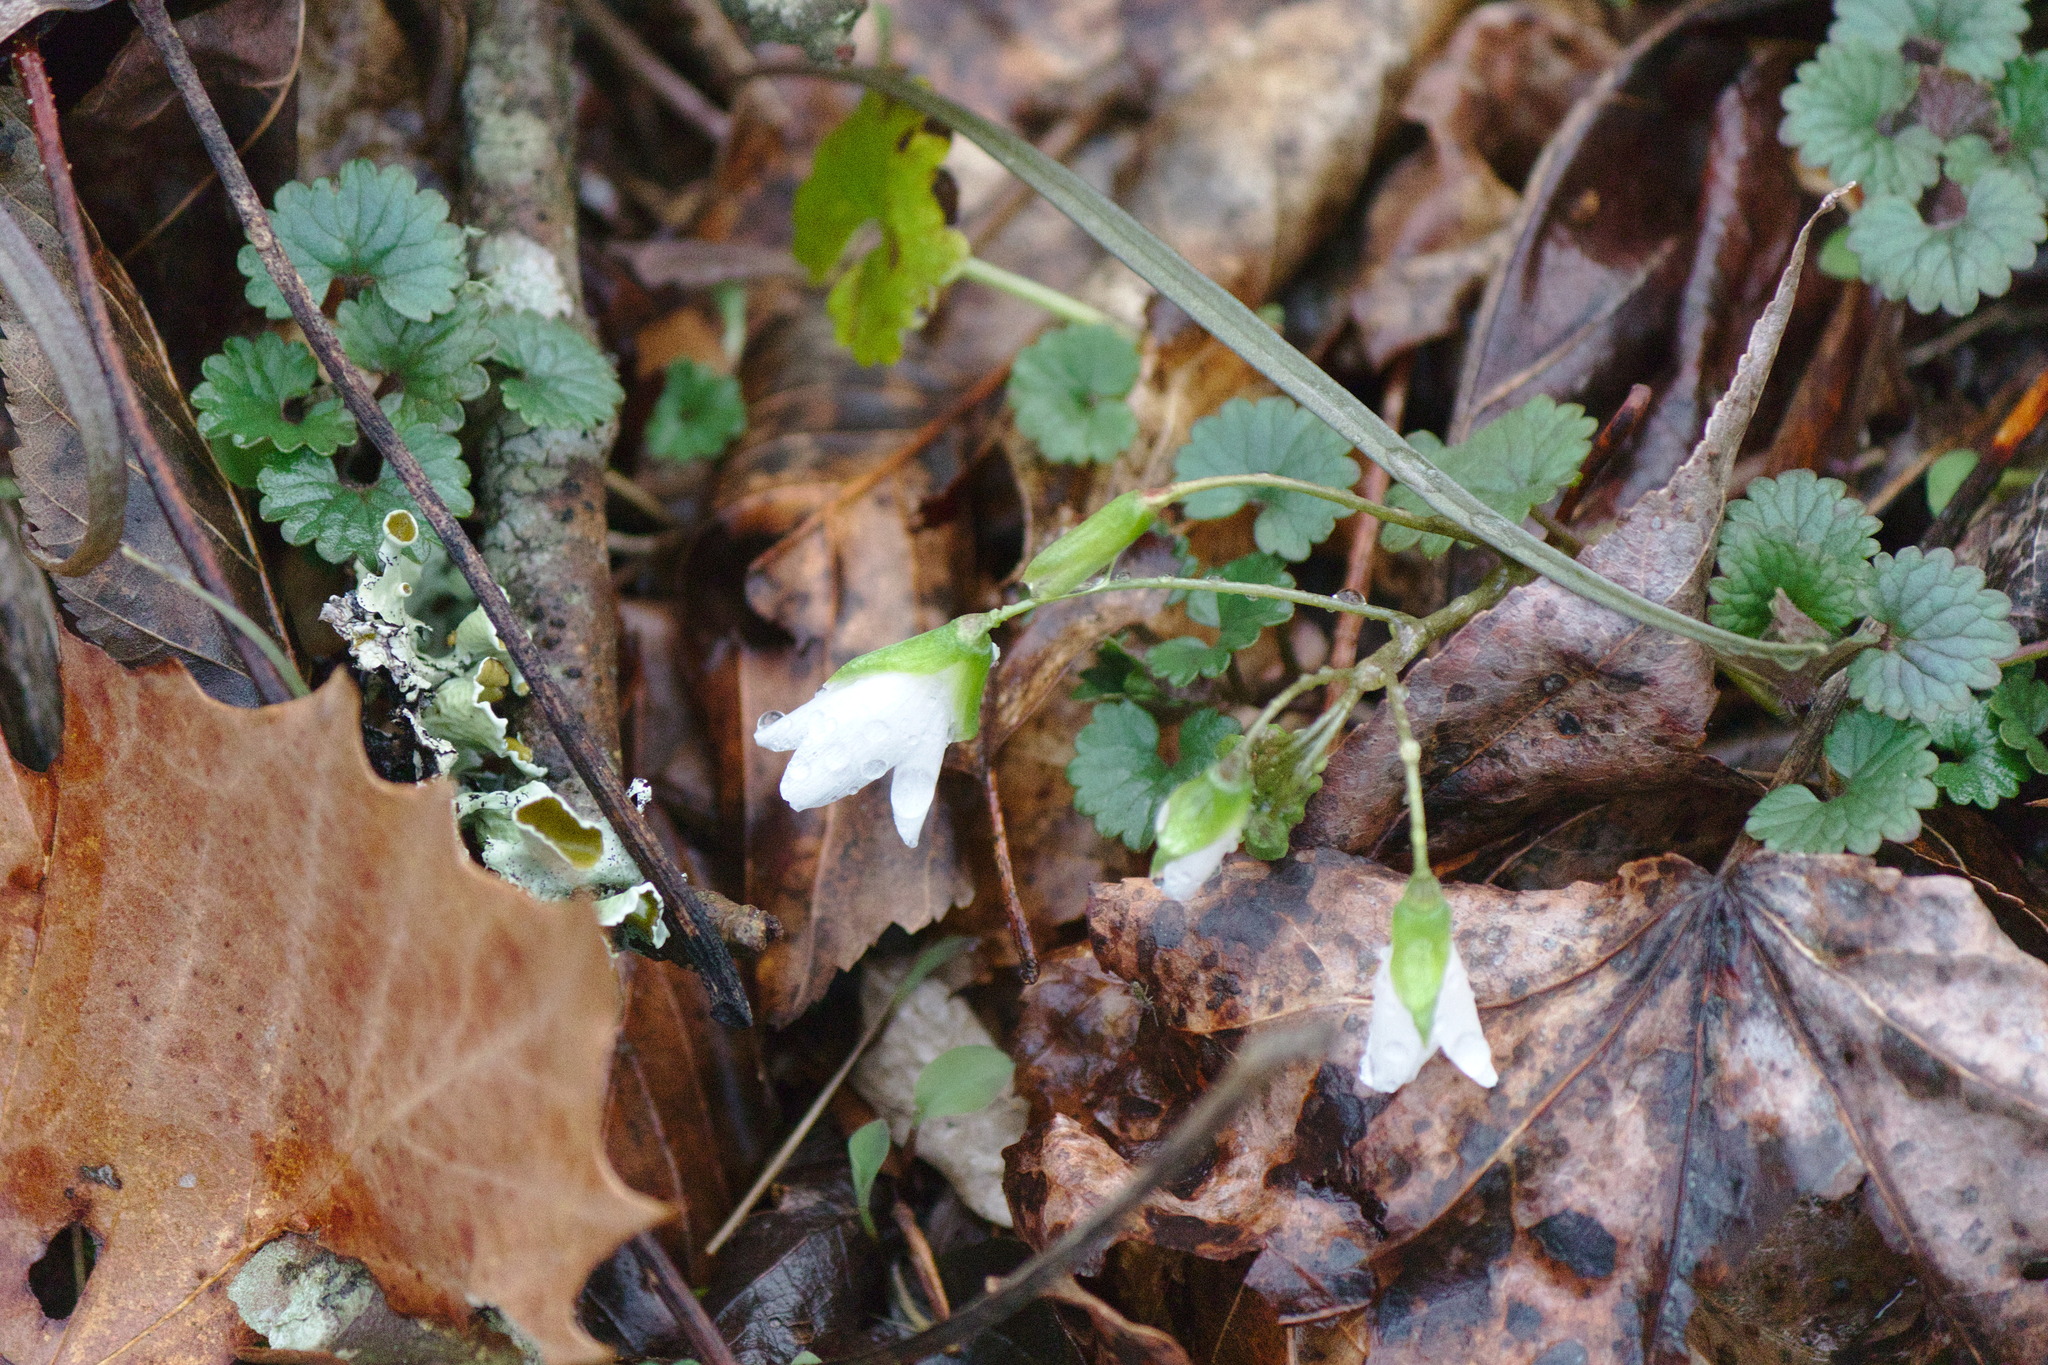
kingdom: Plantae
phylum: Tracheophyta
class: Magnoliopsida
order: Caryophyllales
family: Montiaceae
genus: Claytonia
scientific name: Claytonia virginica
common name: Virginia springbeauty
